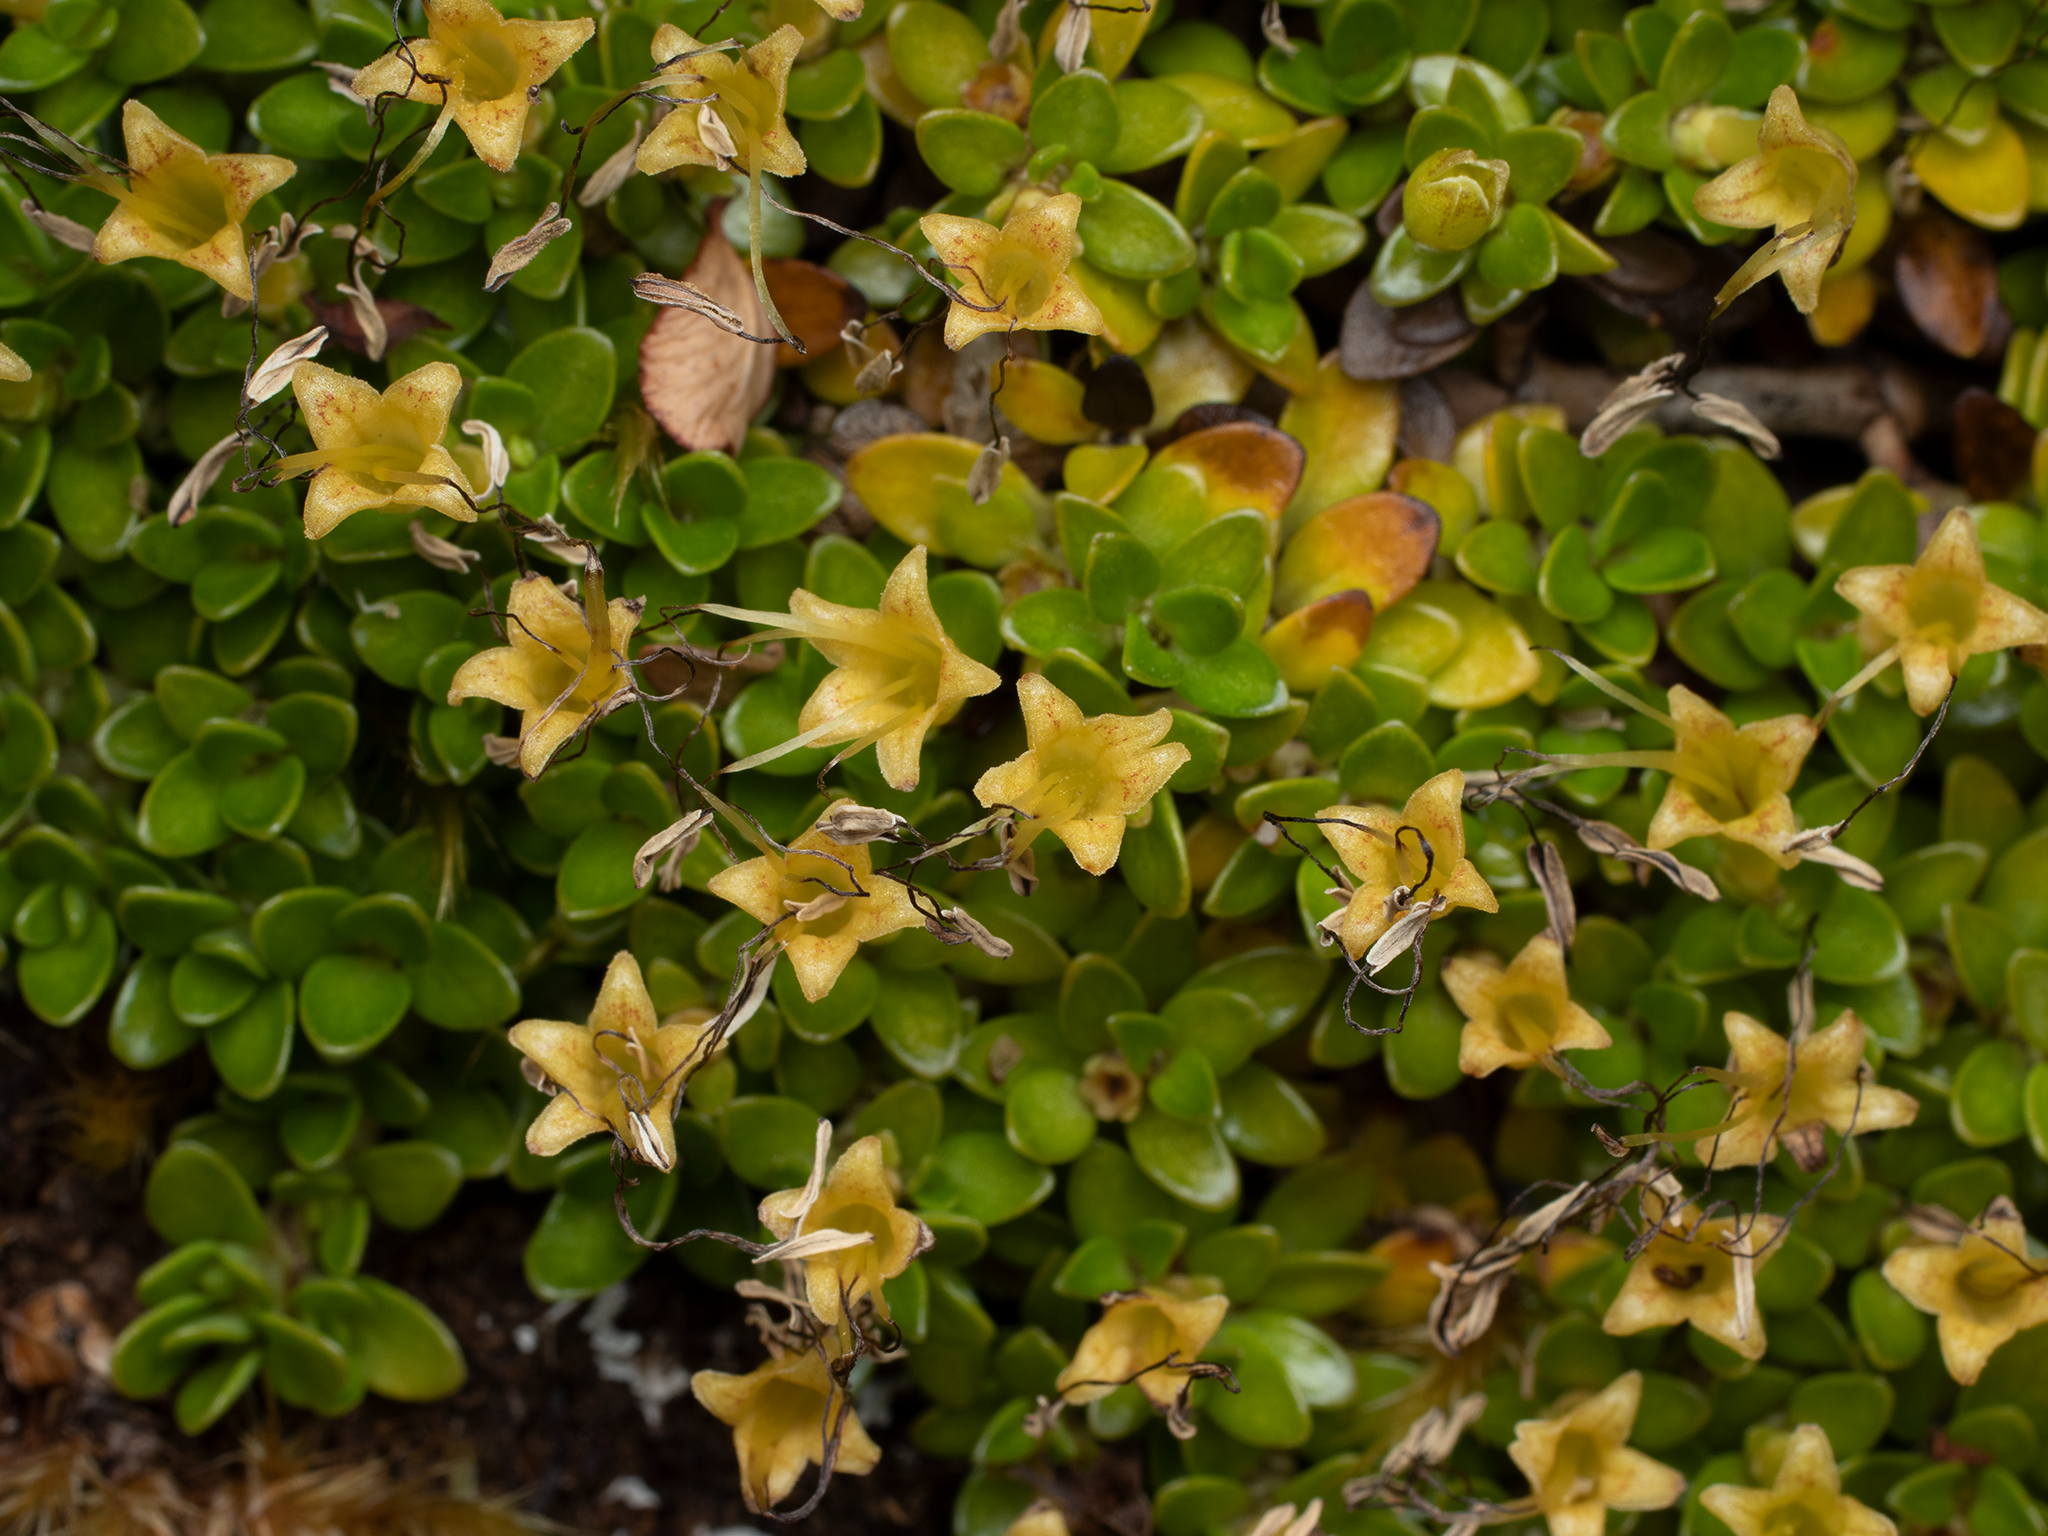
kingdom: Plantae
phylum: Tracheophyta
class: Magnoliopsida
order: Gentianales
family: Rubiaceae
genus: Coprosma
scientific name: Coprosma perpusilla
